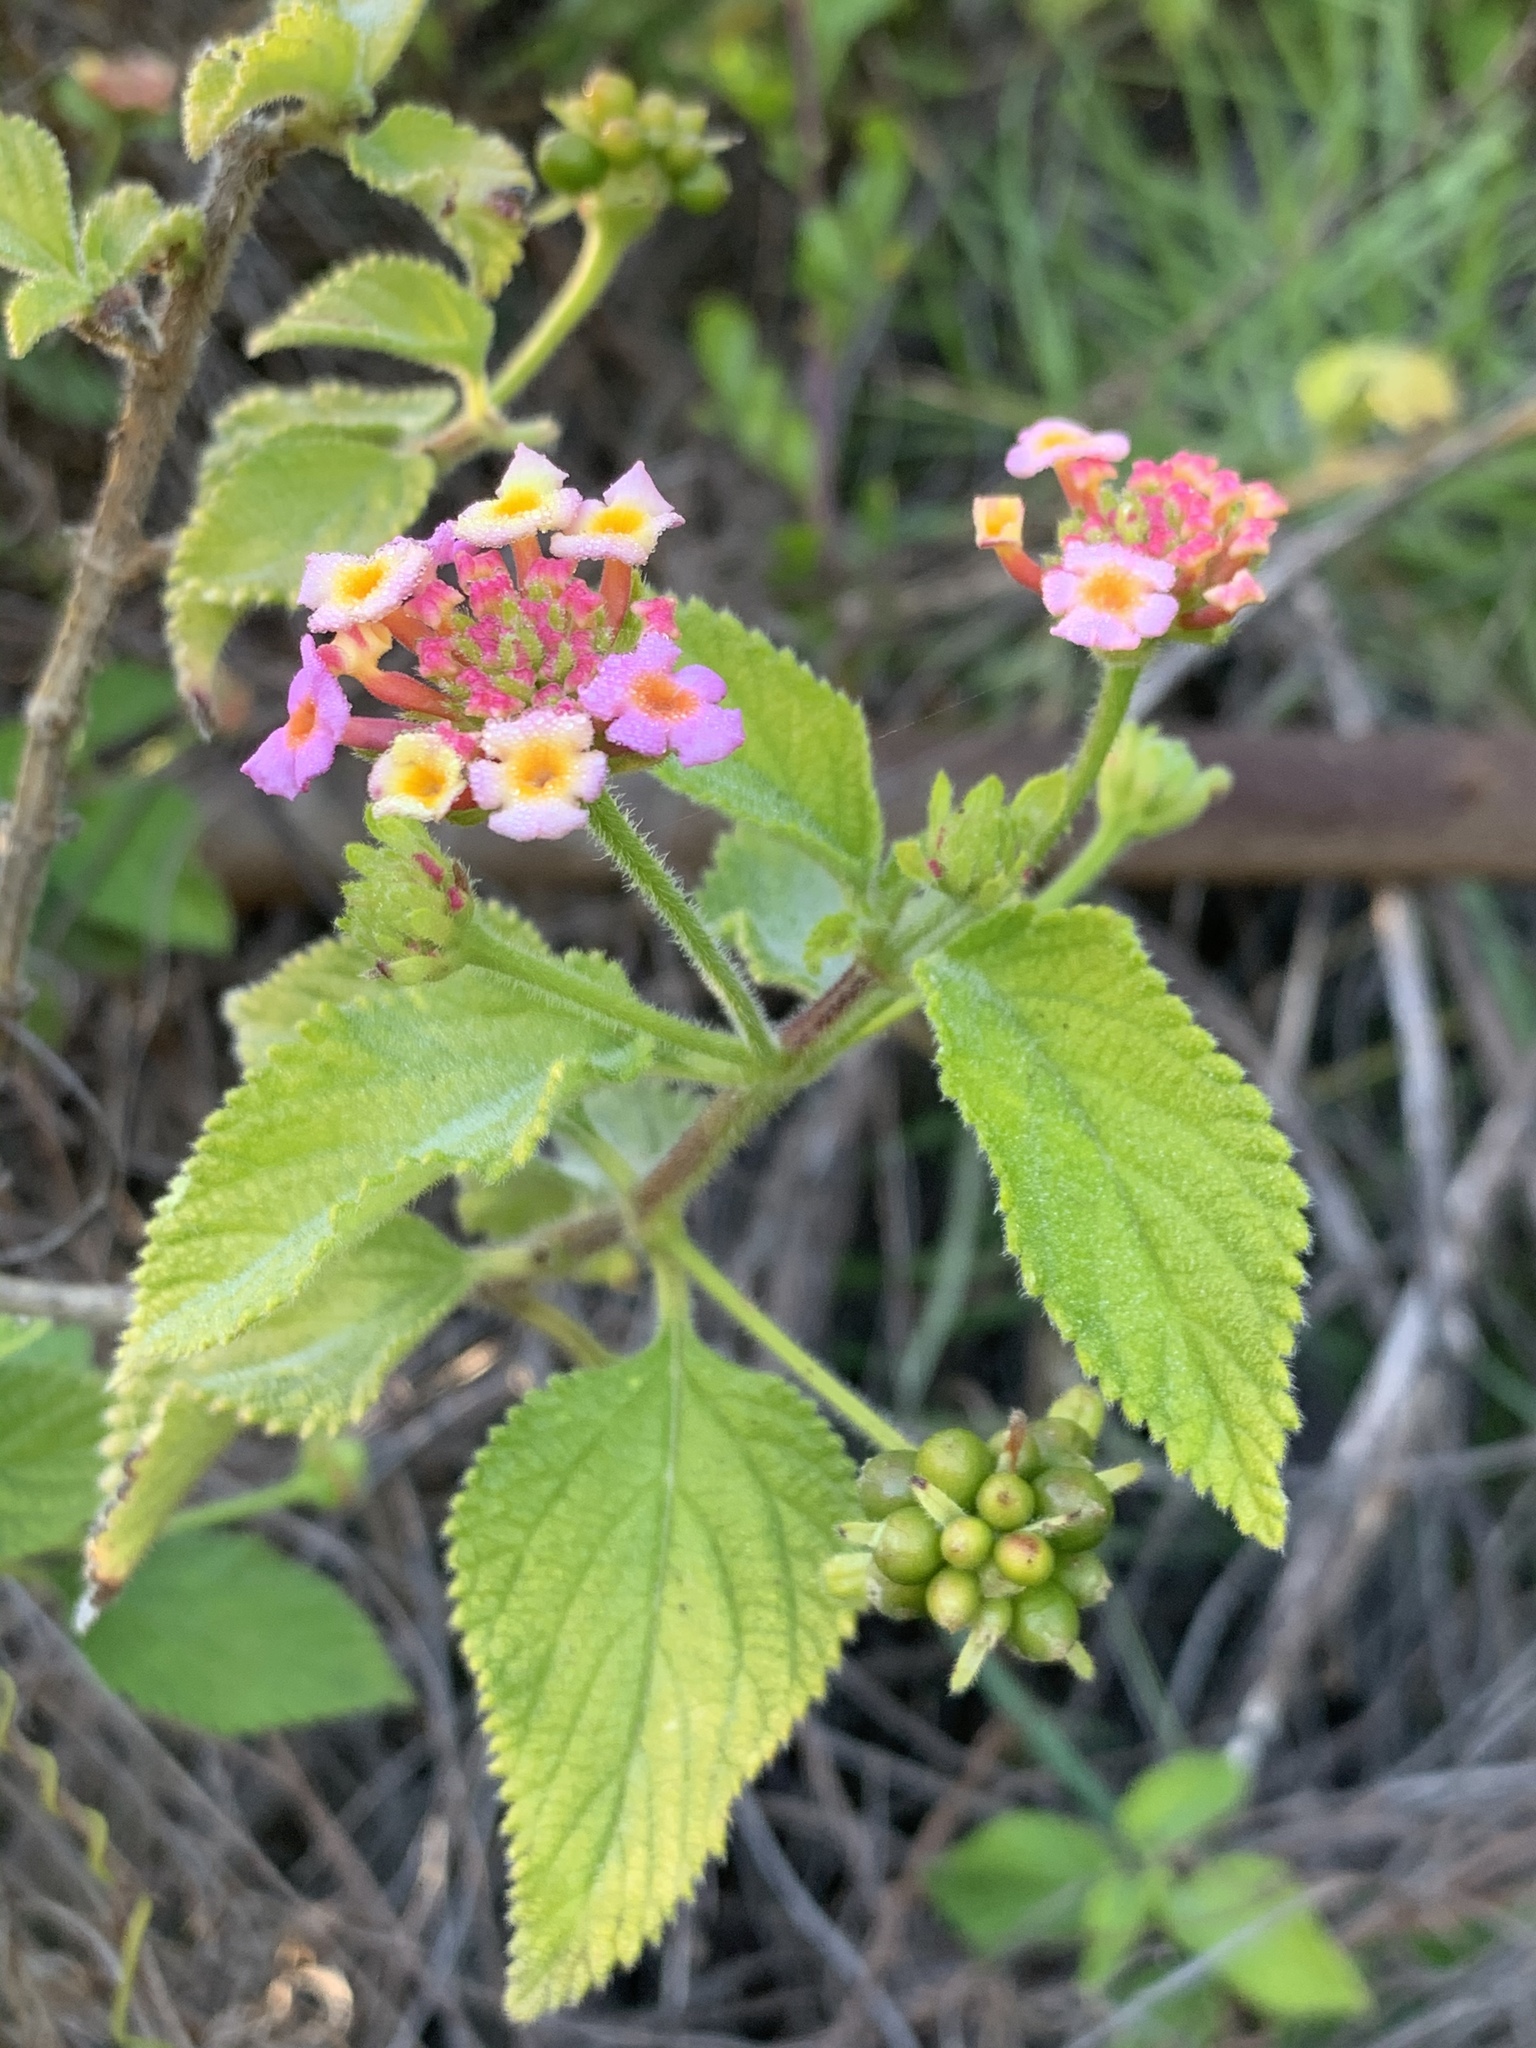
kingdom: Plantae
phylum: Tracheophyta
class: Magnoliopsida
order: Lamiales
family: Verbenaceae
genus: Lantana
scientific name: Lantana camara
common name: Lantana
